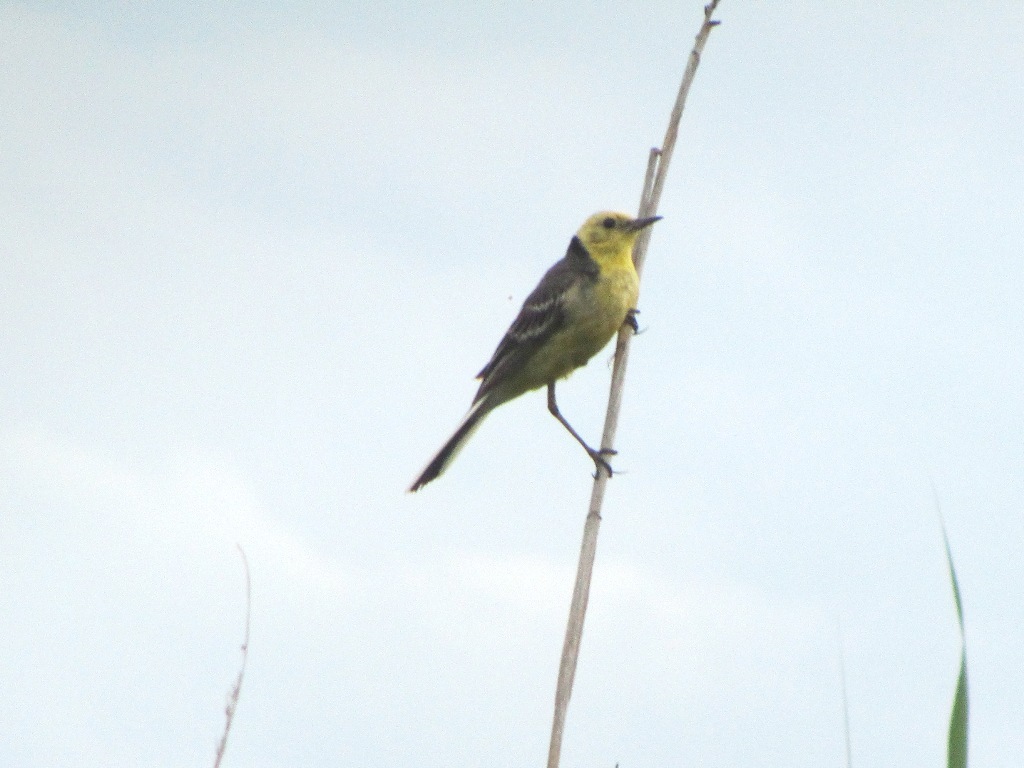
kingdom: Animalia
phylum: Chordata
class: Aves
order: Passeriformes
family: Motacillidae
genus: Motacilla
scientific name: Motacilla citreola
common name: Citrine wagtail
